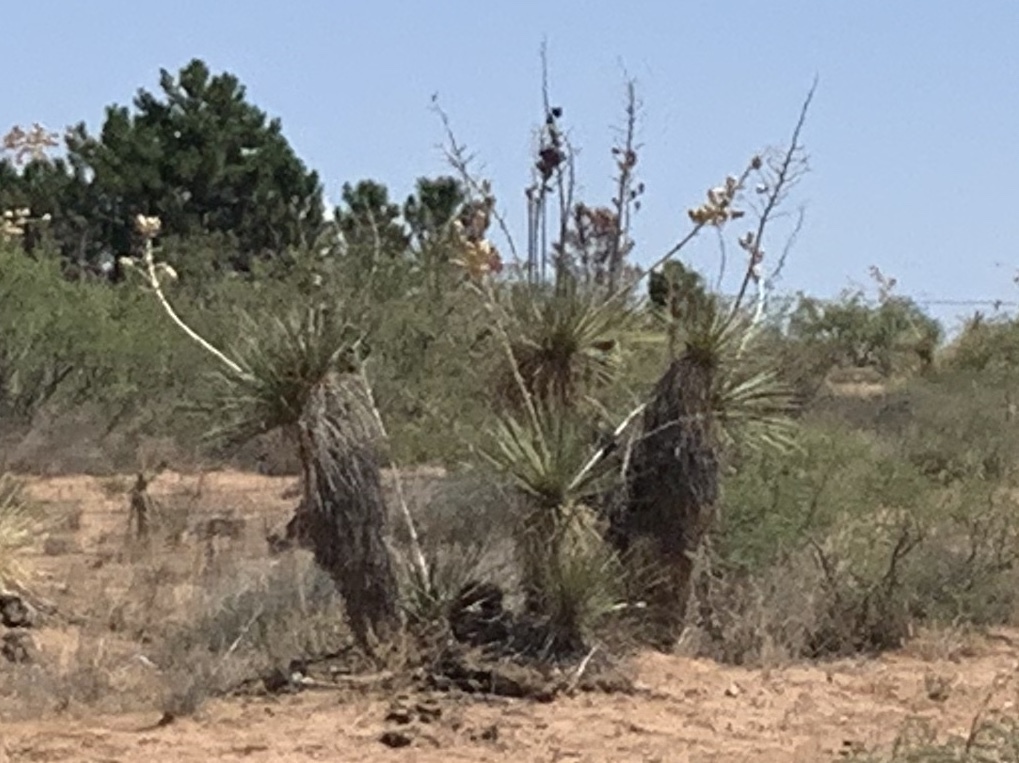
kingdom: Plantae
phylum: Tracheophyta
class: Liliopsida
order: Asparagales
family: Asparagaceae
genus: Yucca
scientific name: Yucca elata
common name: Palmella
